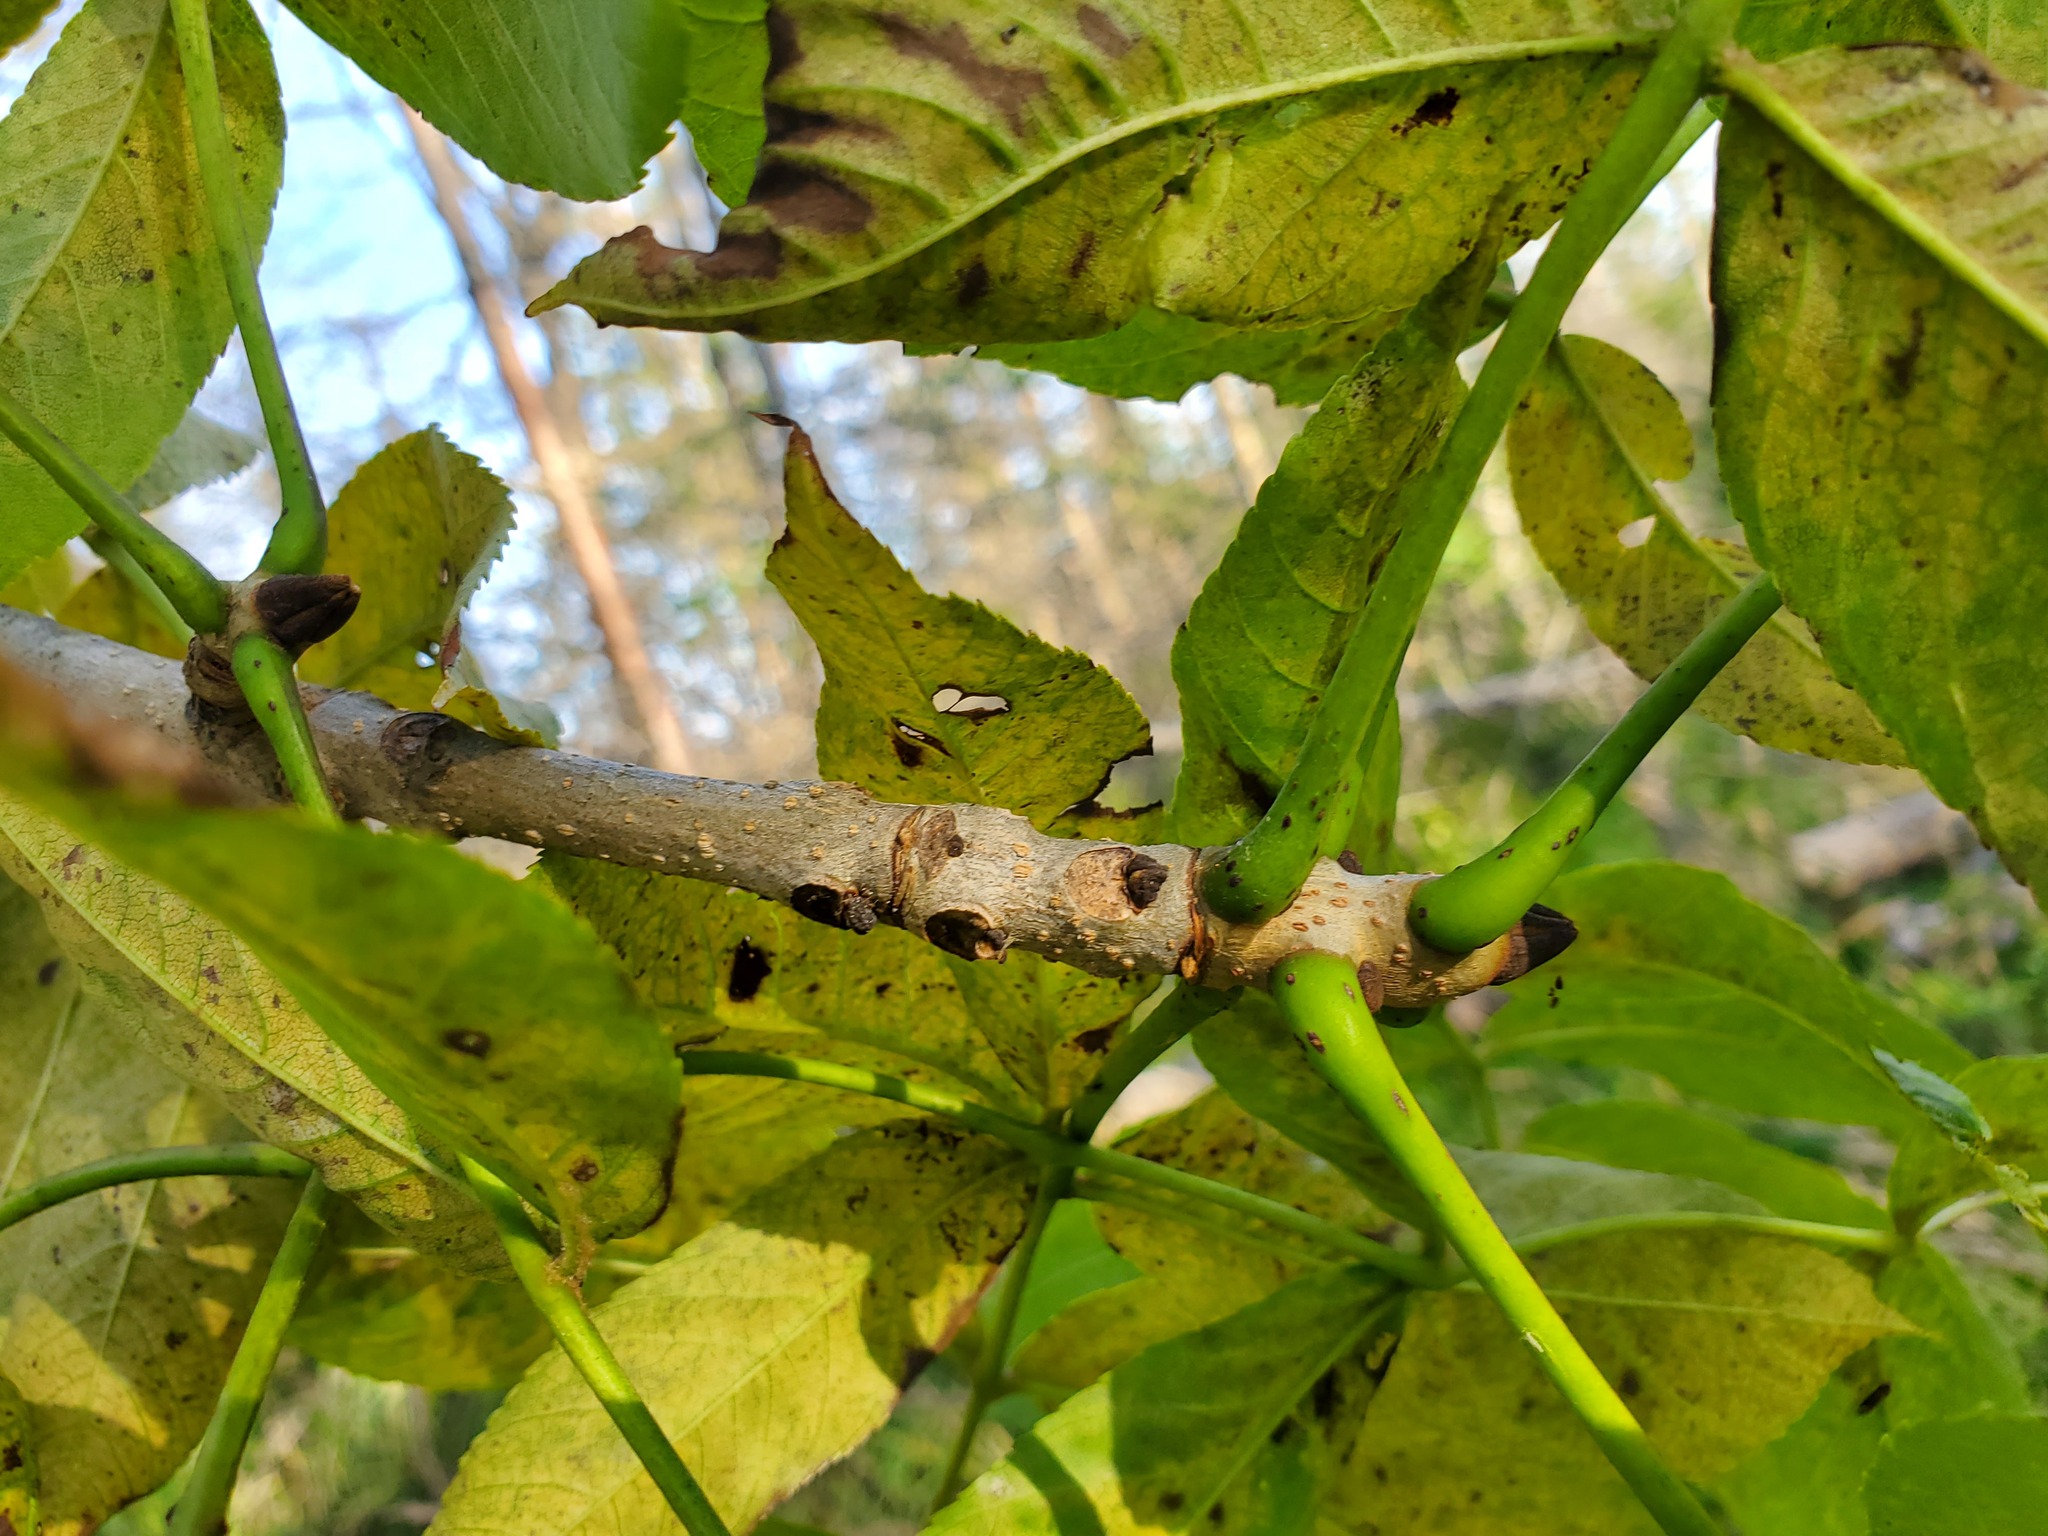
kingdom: Plantae
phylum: Tracheophyta
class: Magnoliopsida
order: Lamiales
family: Oleaceae
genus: Fraxinus
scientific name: Fraxinus nigra
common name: Black ash
